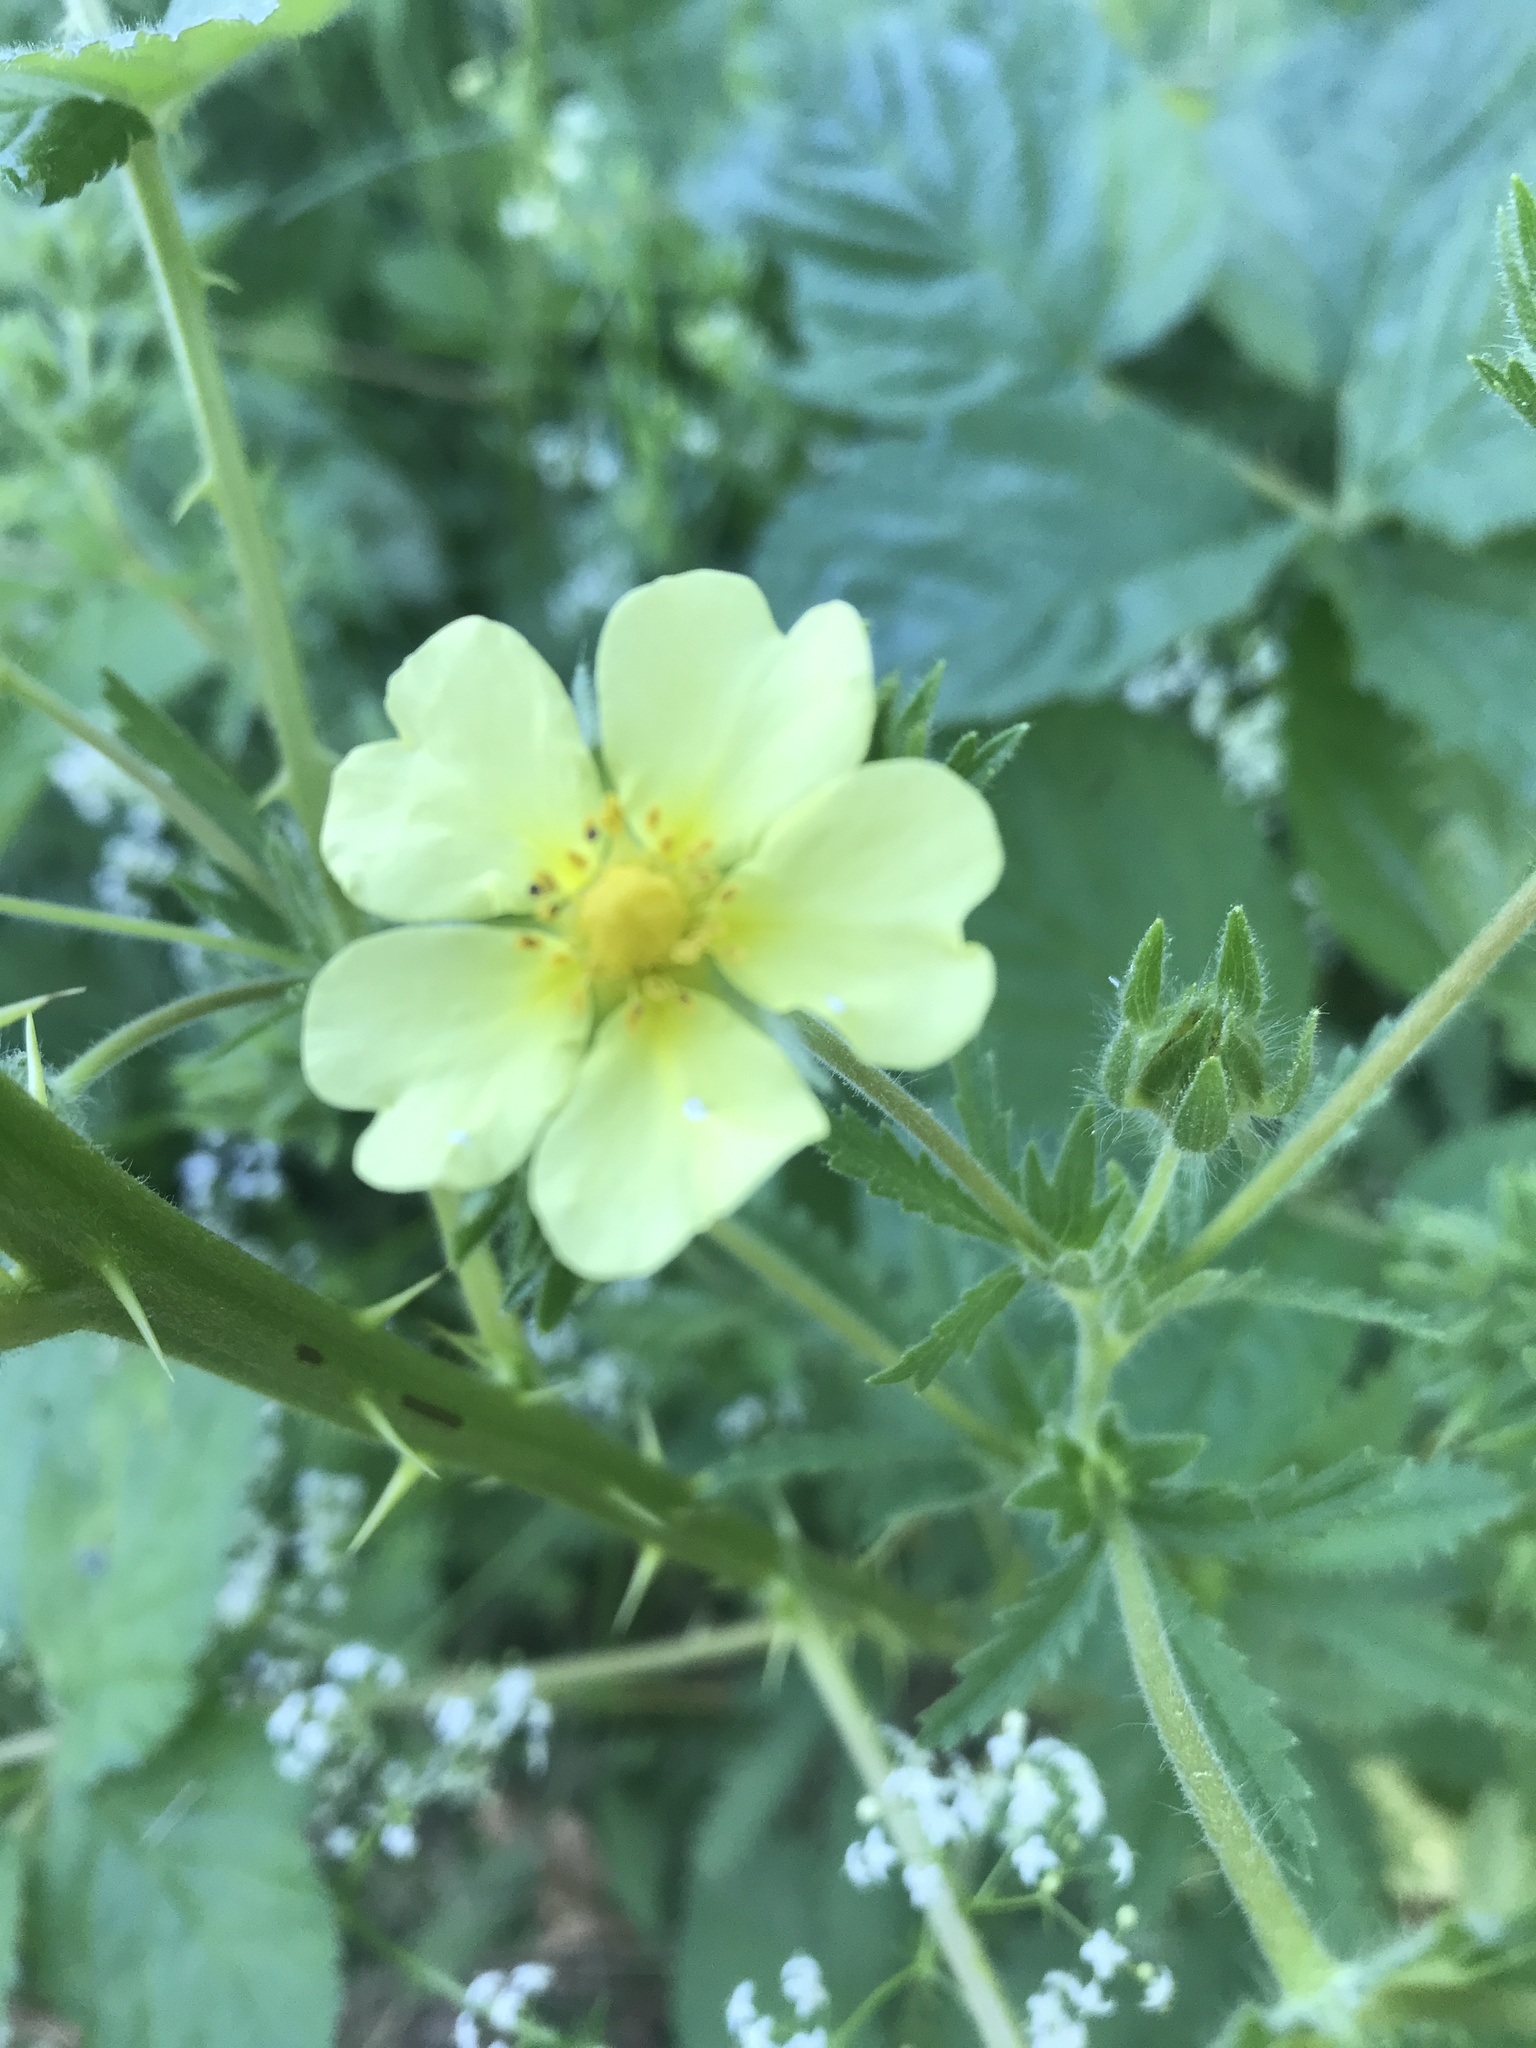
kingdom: Plantae
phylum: Tracheophyta
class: Magnoliopsida
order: Rosales
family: Rosaceae
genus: Potentilla
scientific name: Potentilla recta
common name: Sulphur cinquefoil
